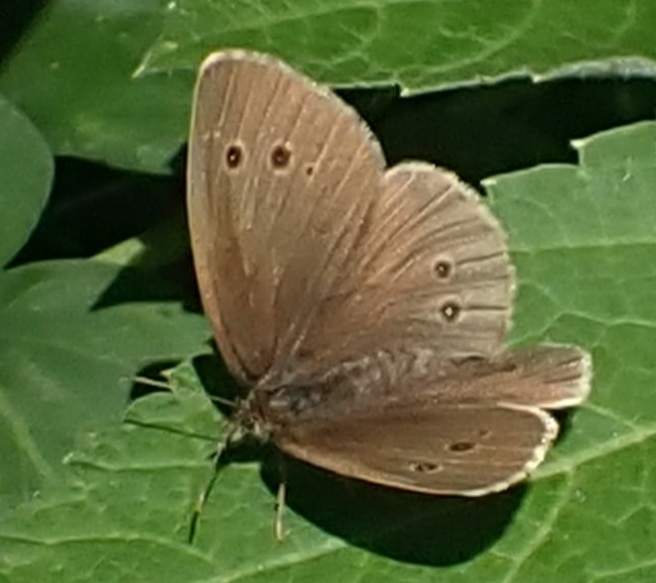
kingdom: Animalia
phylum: Arthropoda
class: Insecta
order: Lepidoptera
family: Nymphalidae
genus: Aphantopus
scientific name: Aphantopus hyperantus
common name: Ringlet
